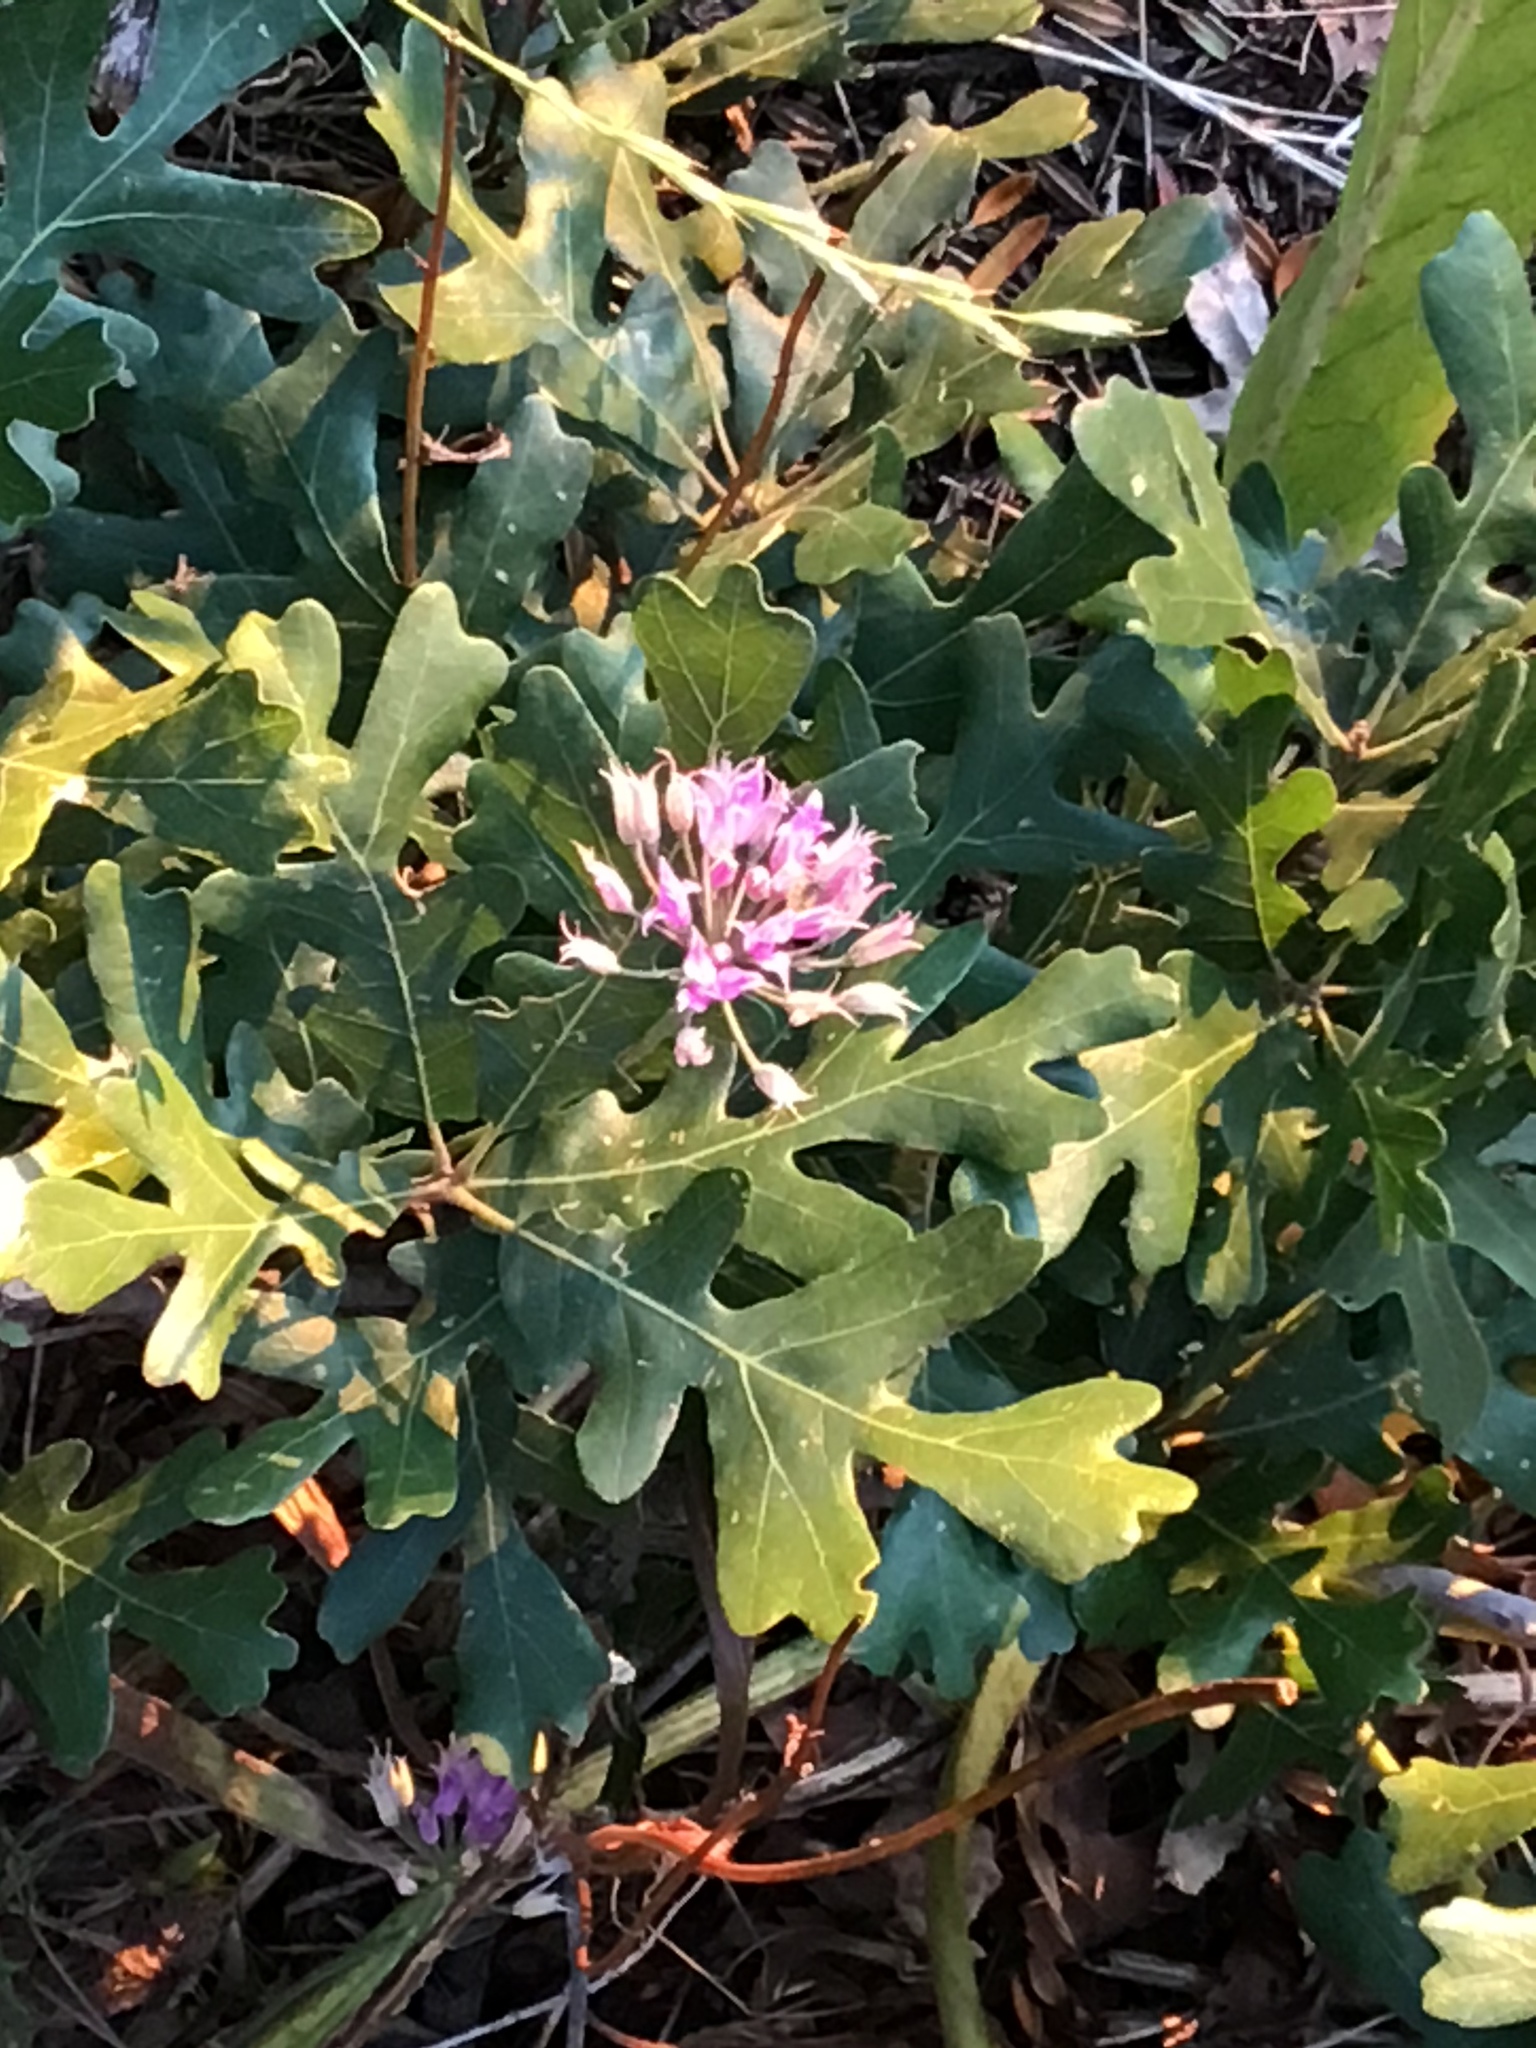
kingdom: Plantae
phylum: Tracheophyta
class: Liliopsida
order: Asparagales
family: Amaryllidaceae
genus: Allium
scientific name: Allium acuminatum
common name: Hooker's onion
